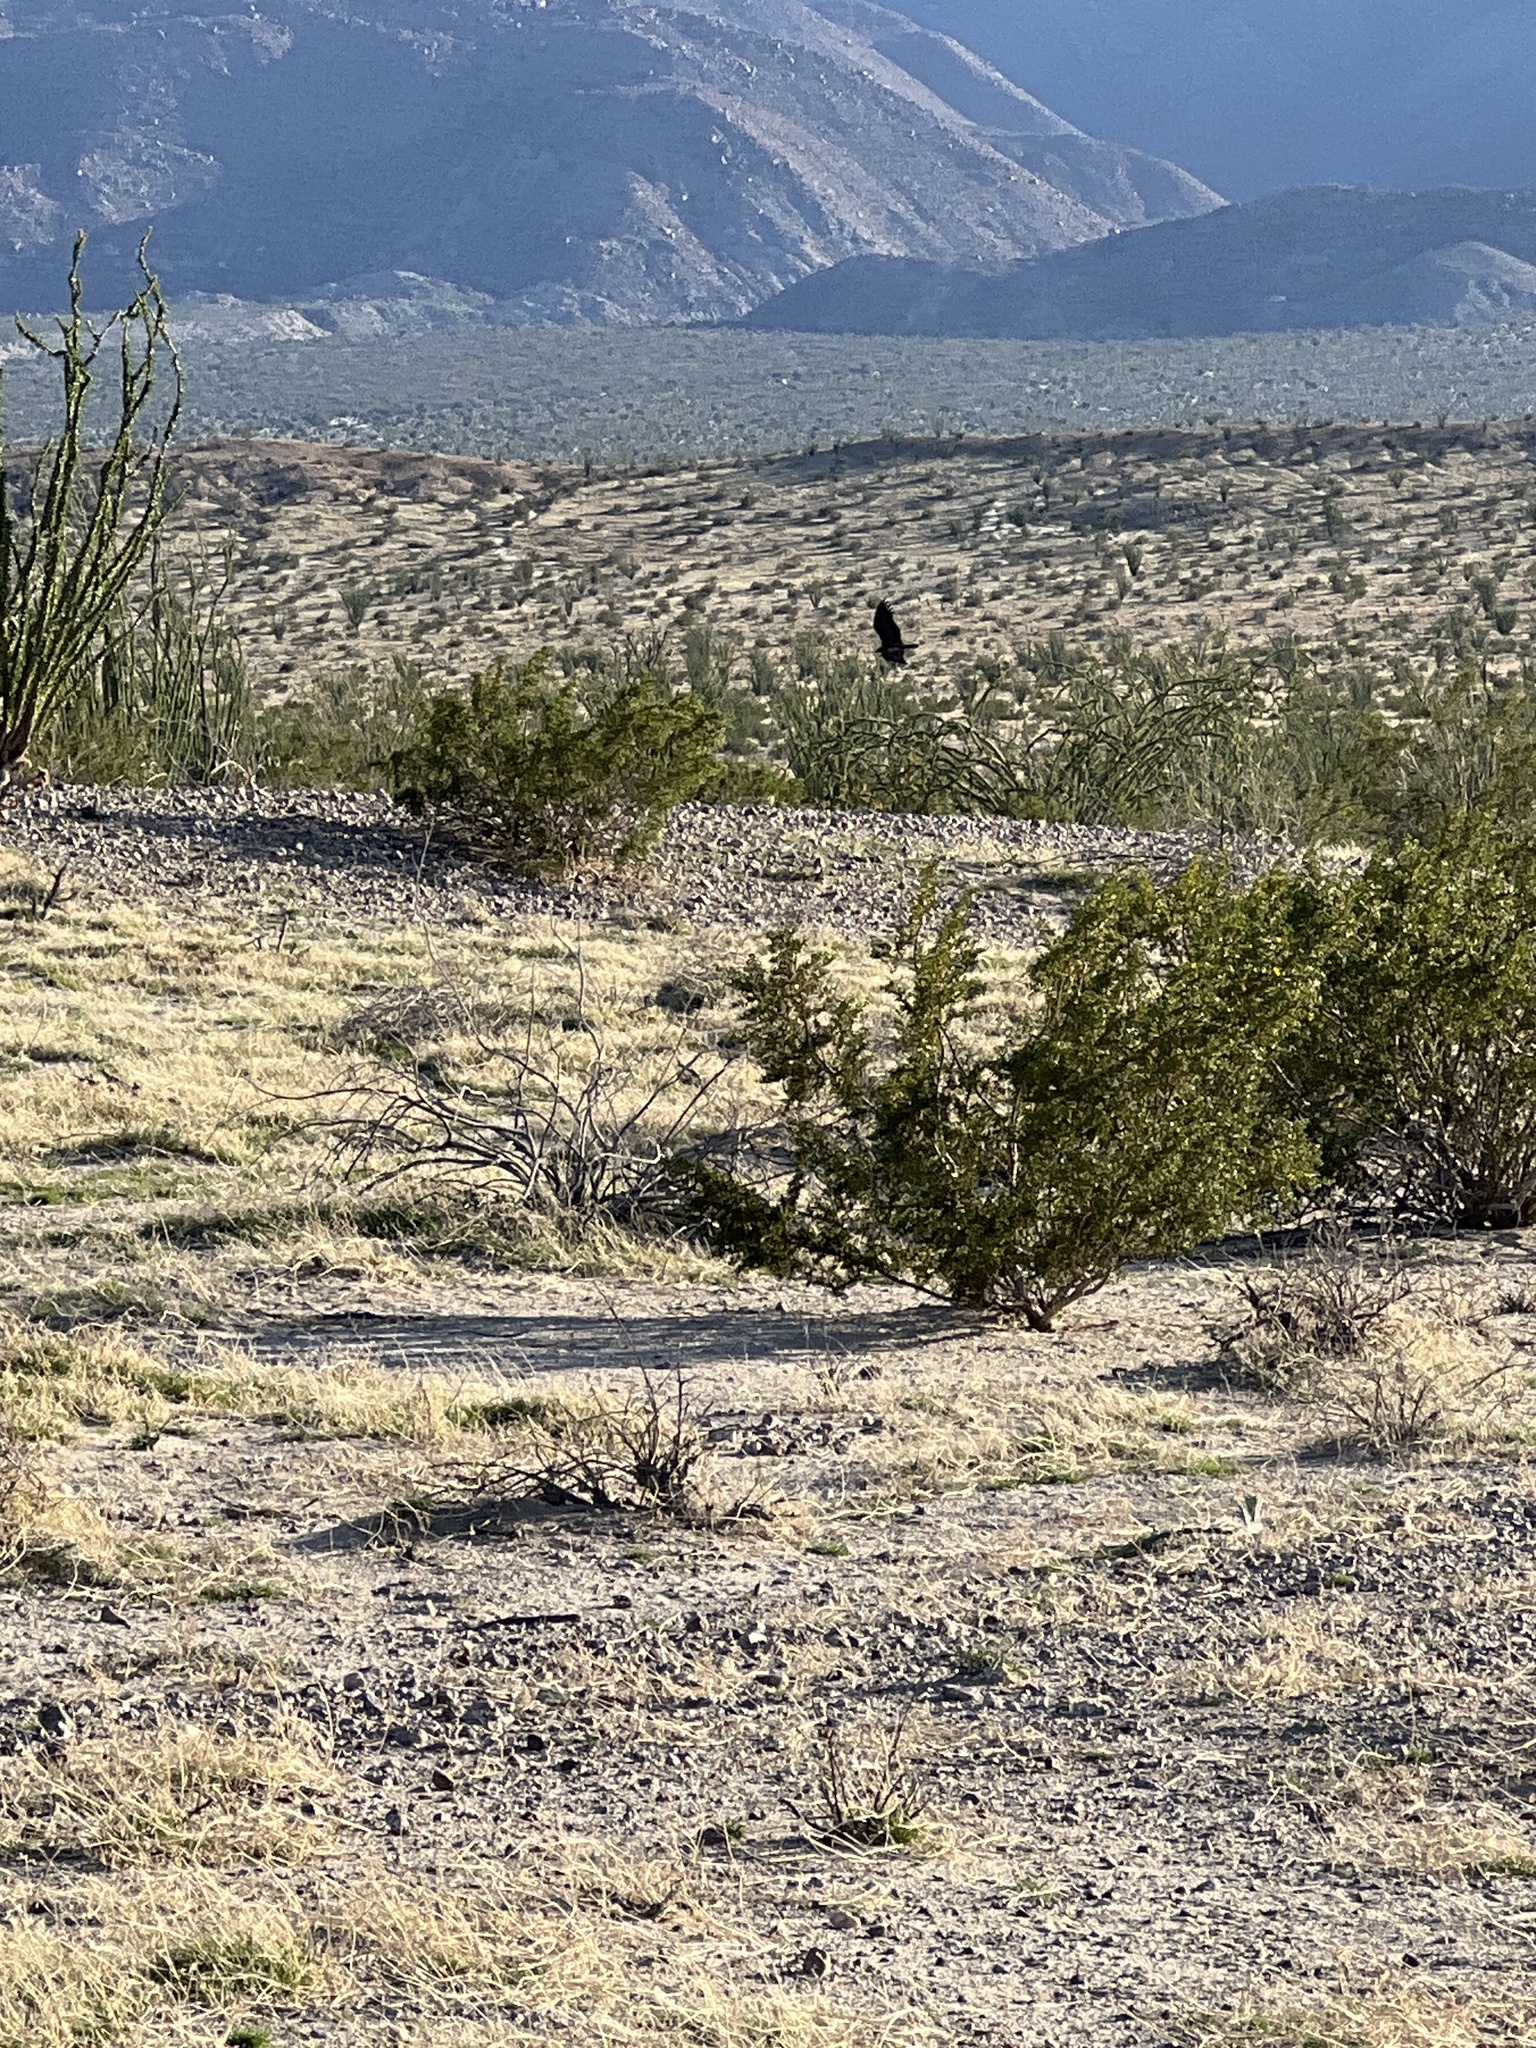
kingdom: Animalia
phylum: Chordata
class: Aves
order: Accipitriformes
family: Cathartidae
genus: Cathartes
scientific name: Cathartes aura
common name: Turkey vulture
